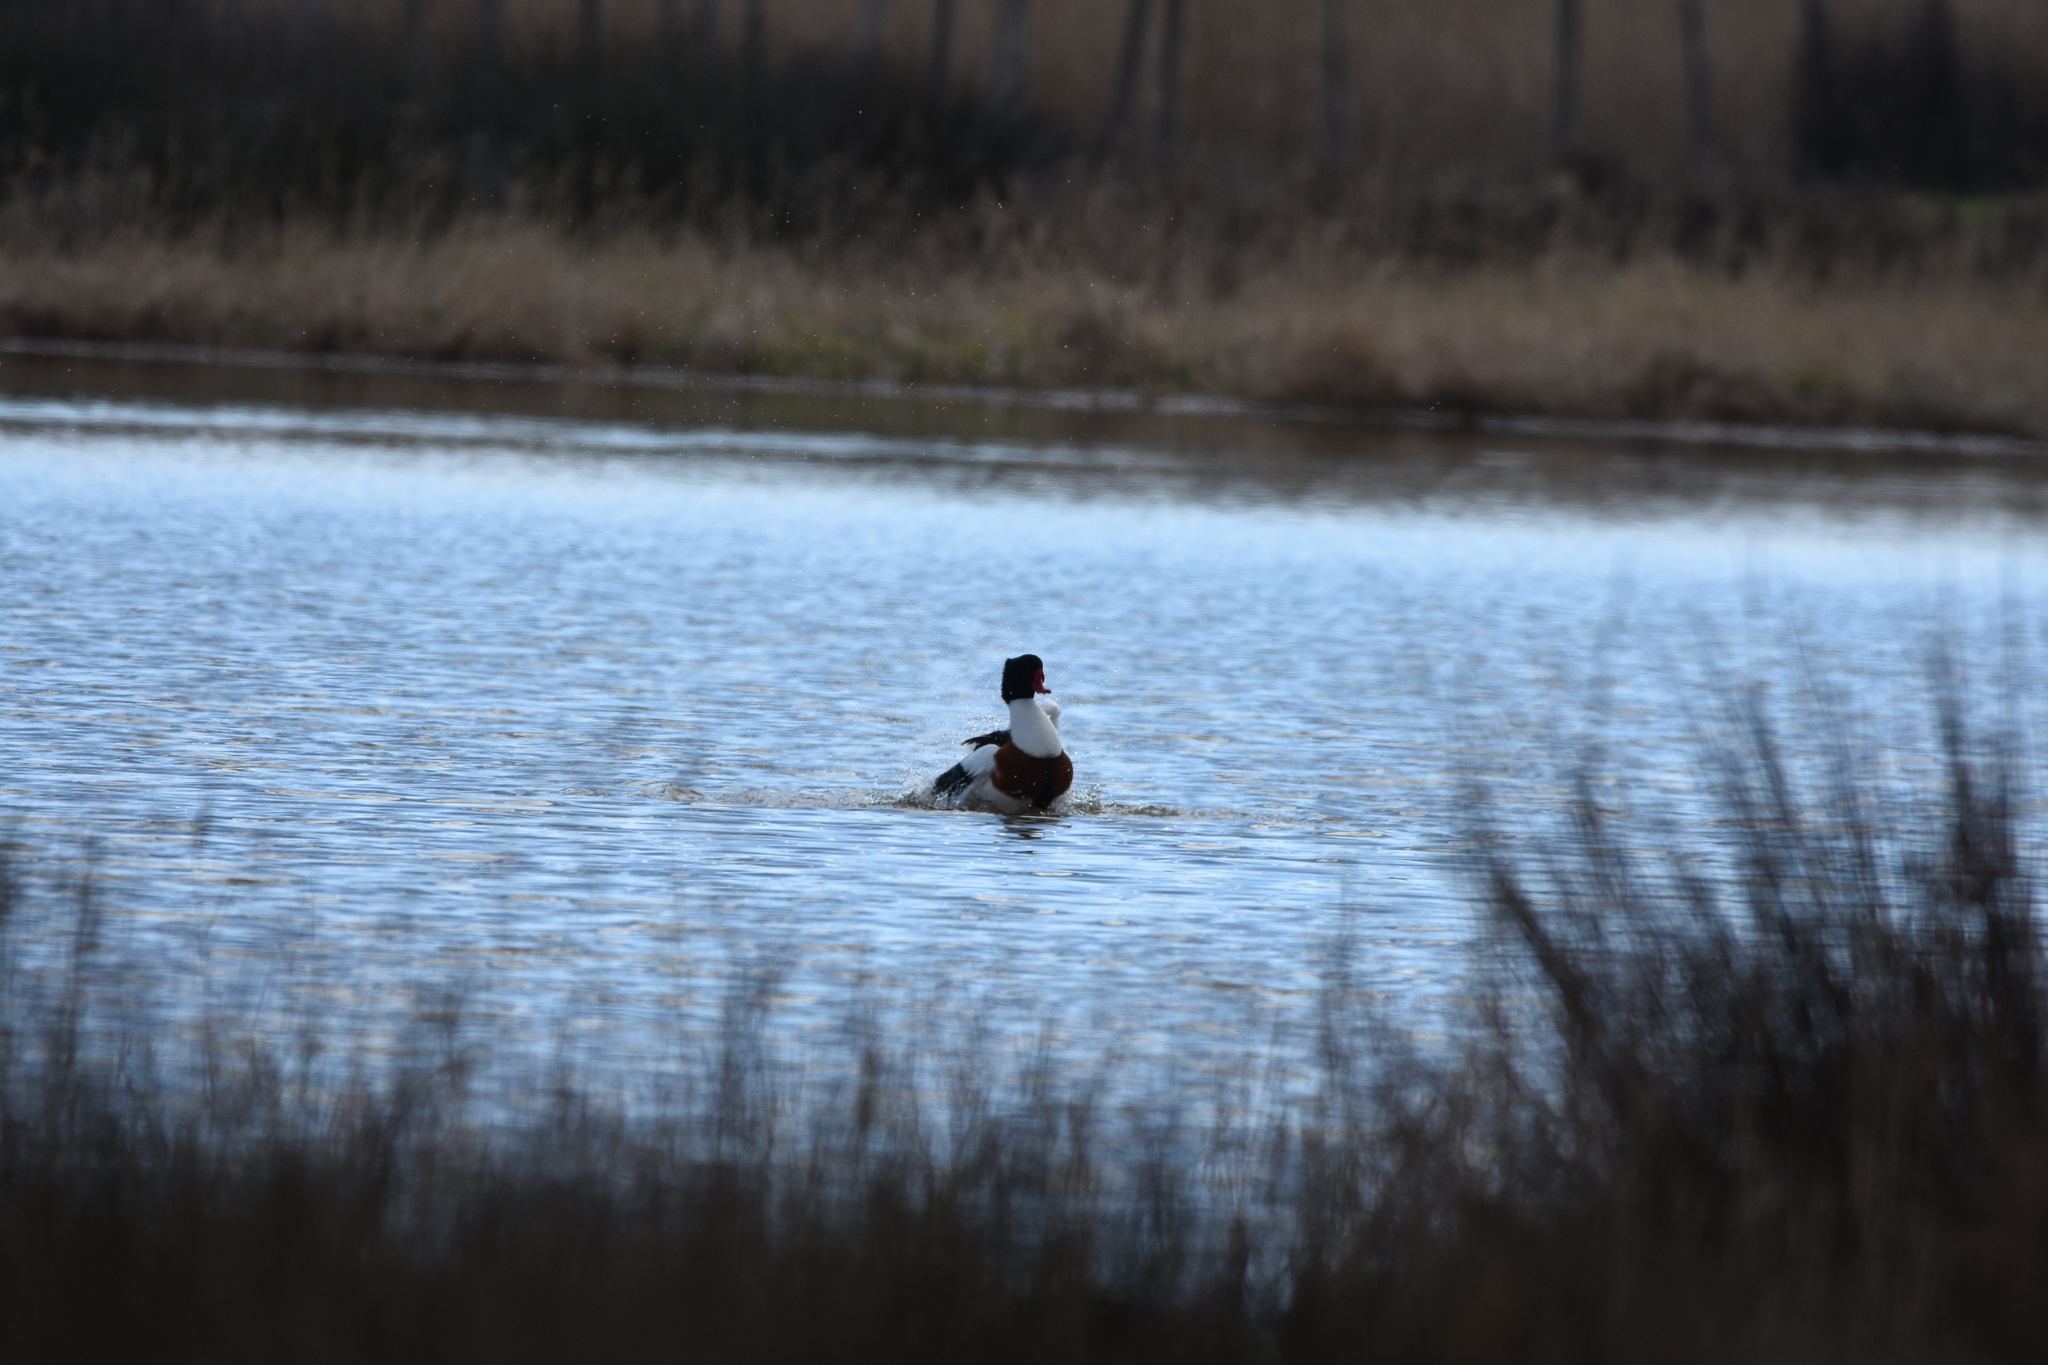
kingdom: Animalia
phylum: Chordata
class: Aves
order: Anseriformes
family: Anatidae
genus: Tadorna
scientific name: Tadorna tadorna
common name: Common shelduck
